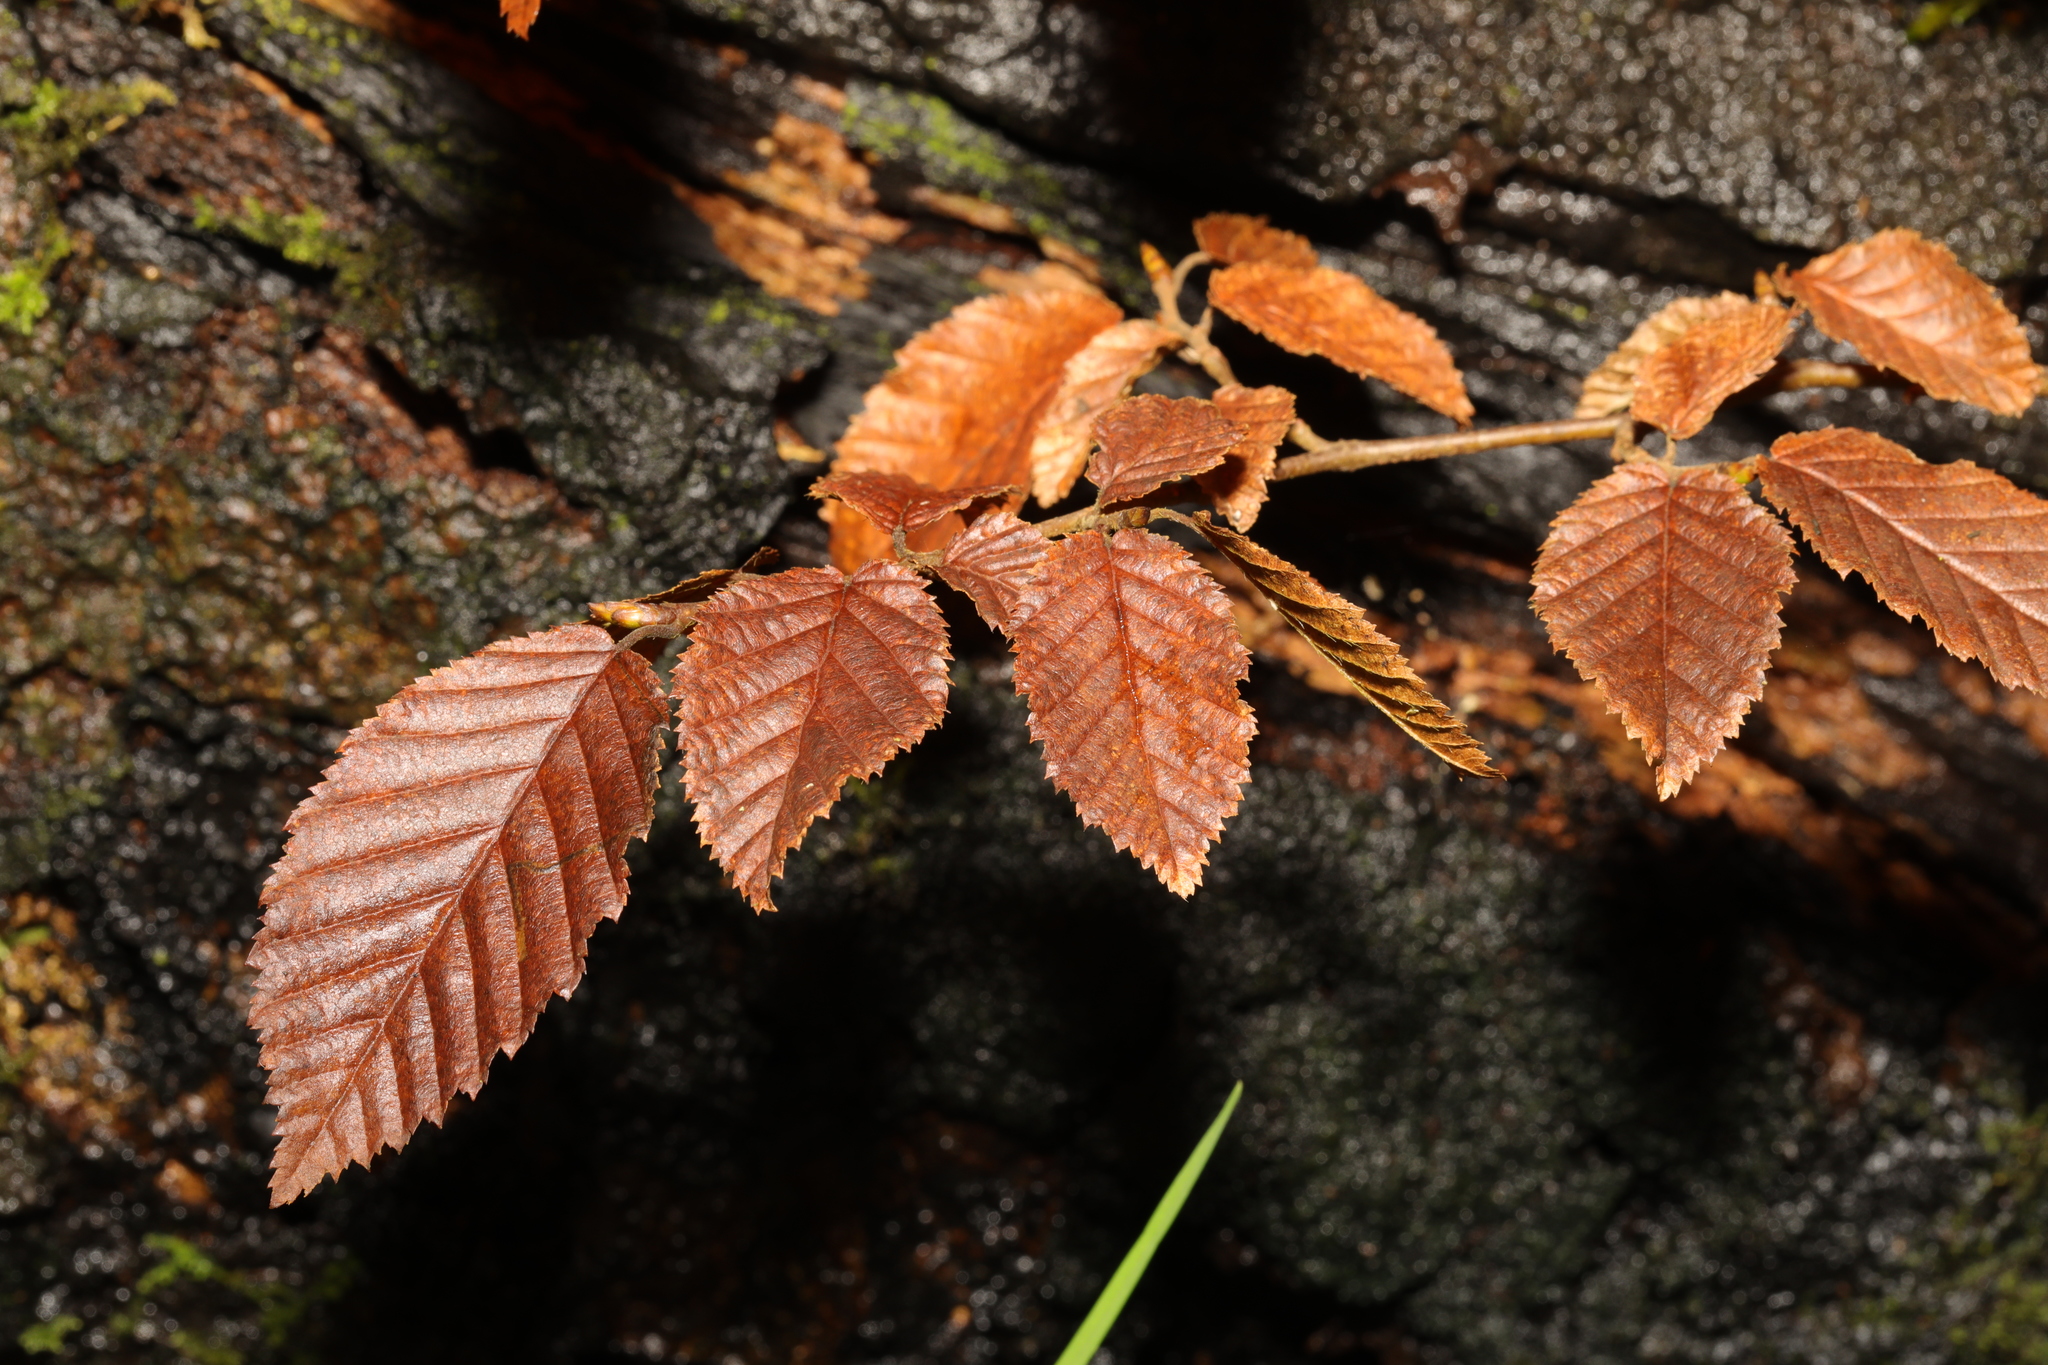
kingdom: Plantae
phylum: Tracheophyta
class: Magnoliopsida
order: Fagales
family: Betulaceae
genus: Carpinus
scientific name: Carpinus betulus
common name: Hornbeam
